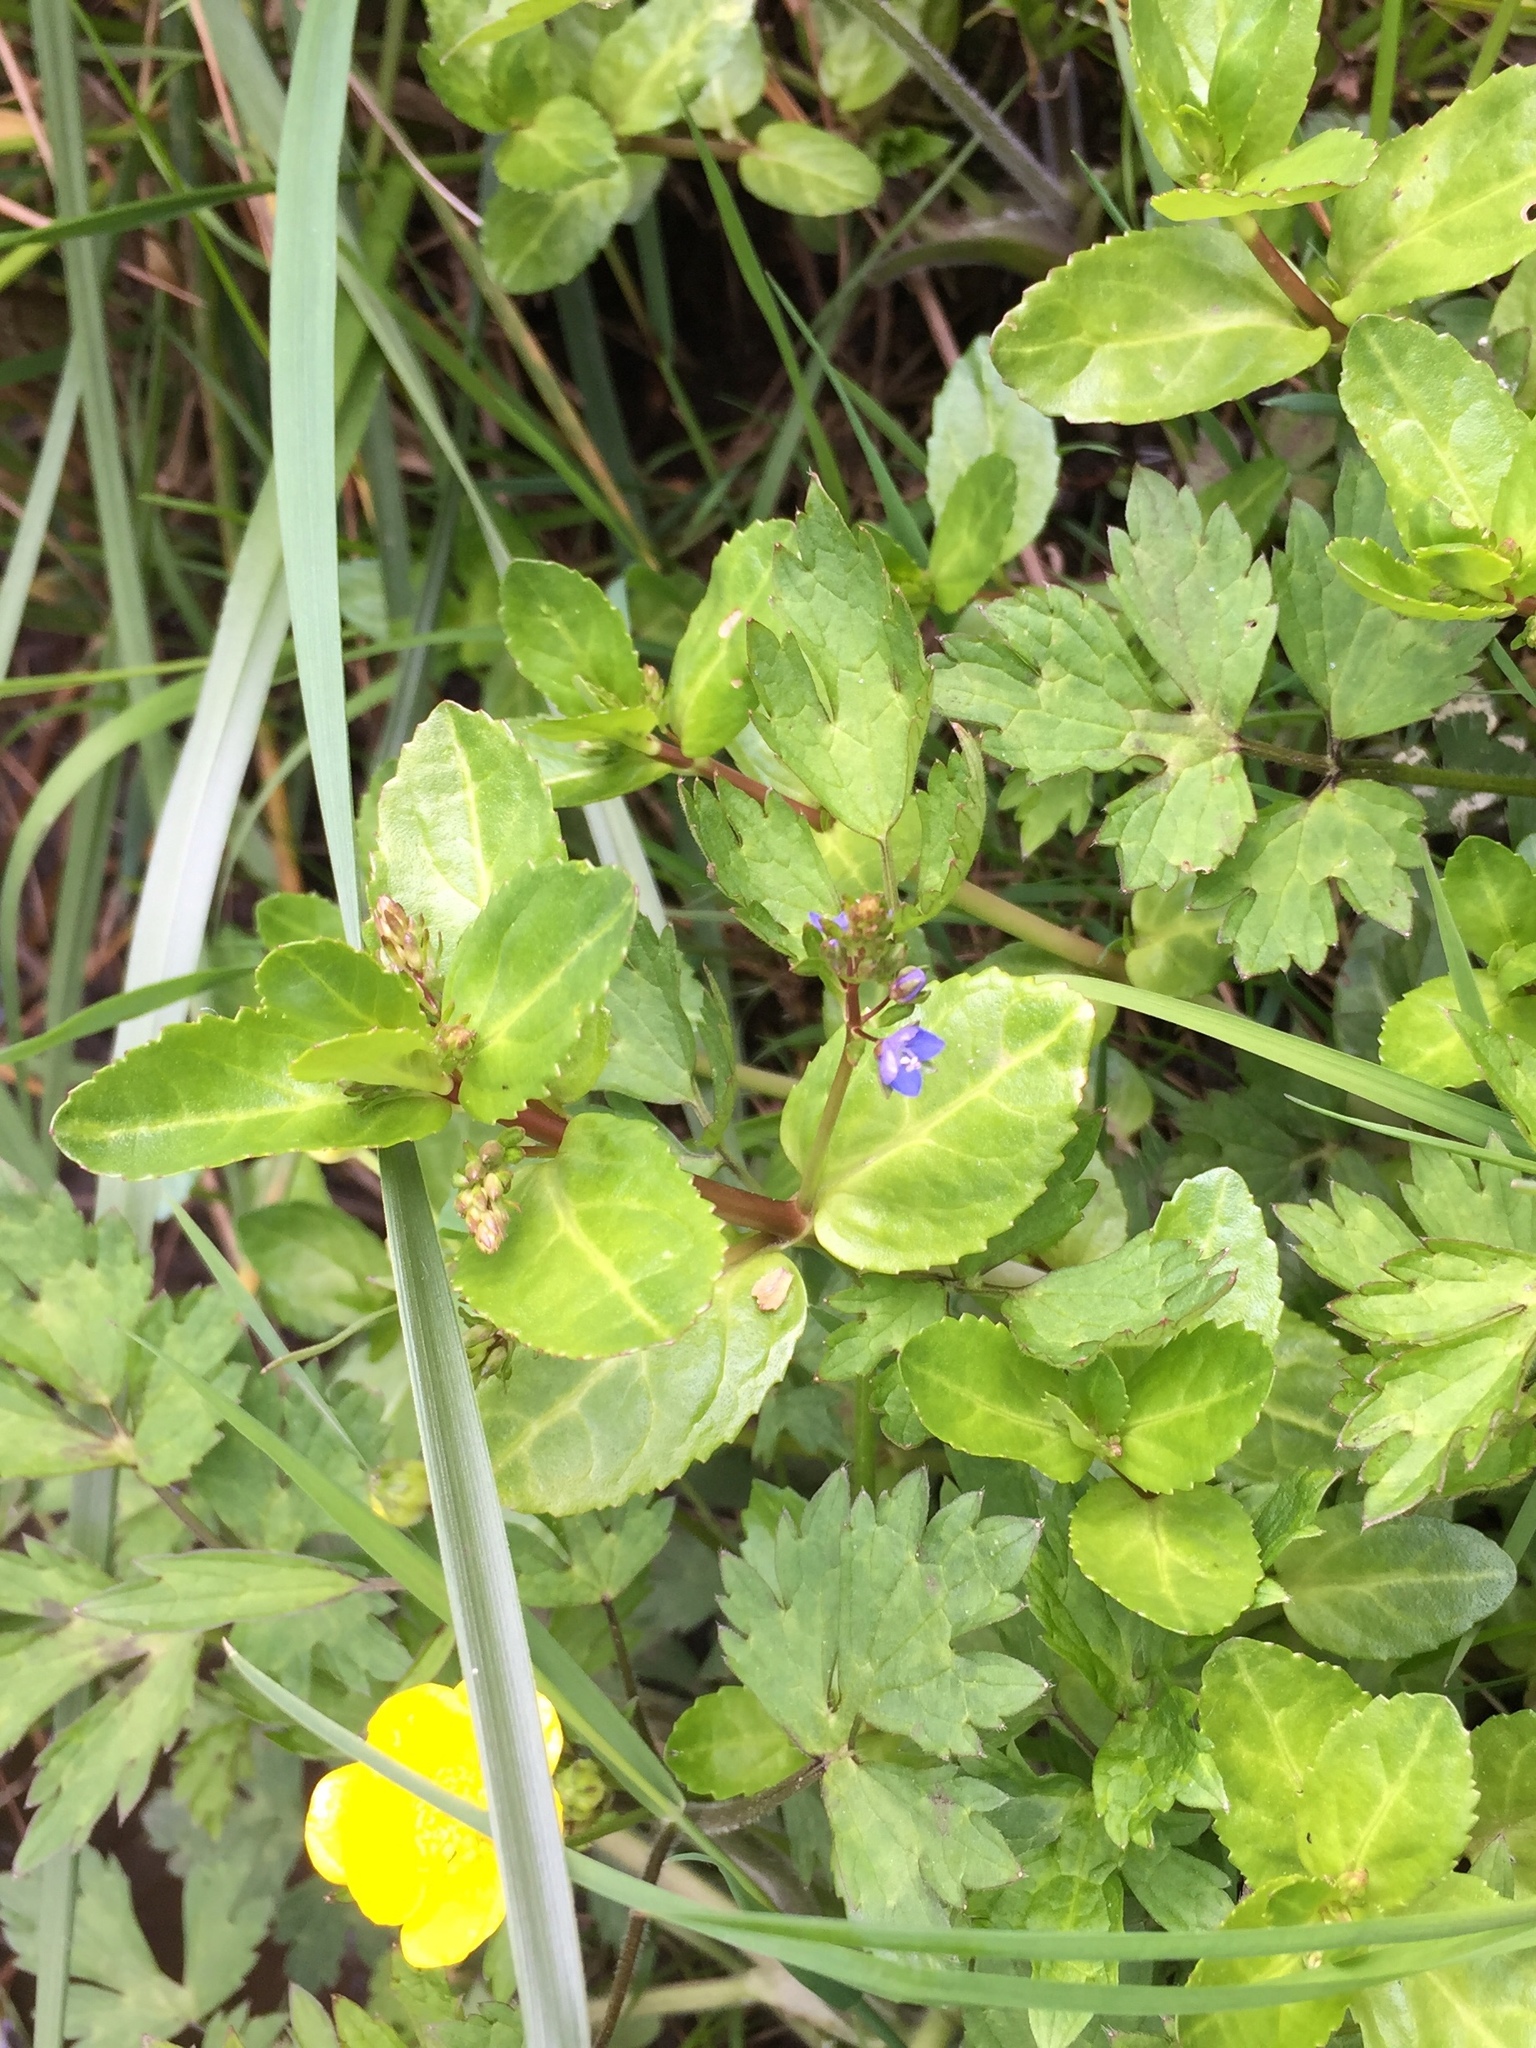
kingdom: Plantae
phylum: Tracheophyta
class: Magnoliopsida
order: Lamiales
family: Plantaginaceae
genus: Veronica
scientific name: Veronica beccabunga
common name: Brooklime
